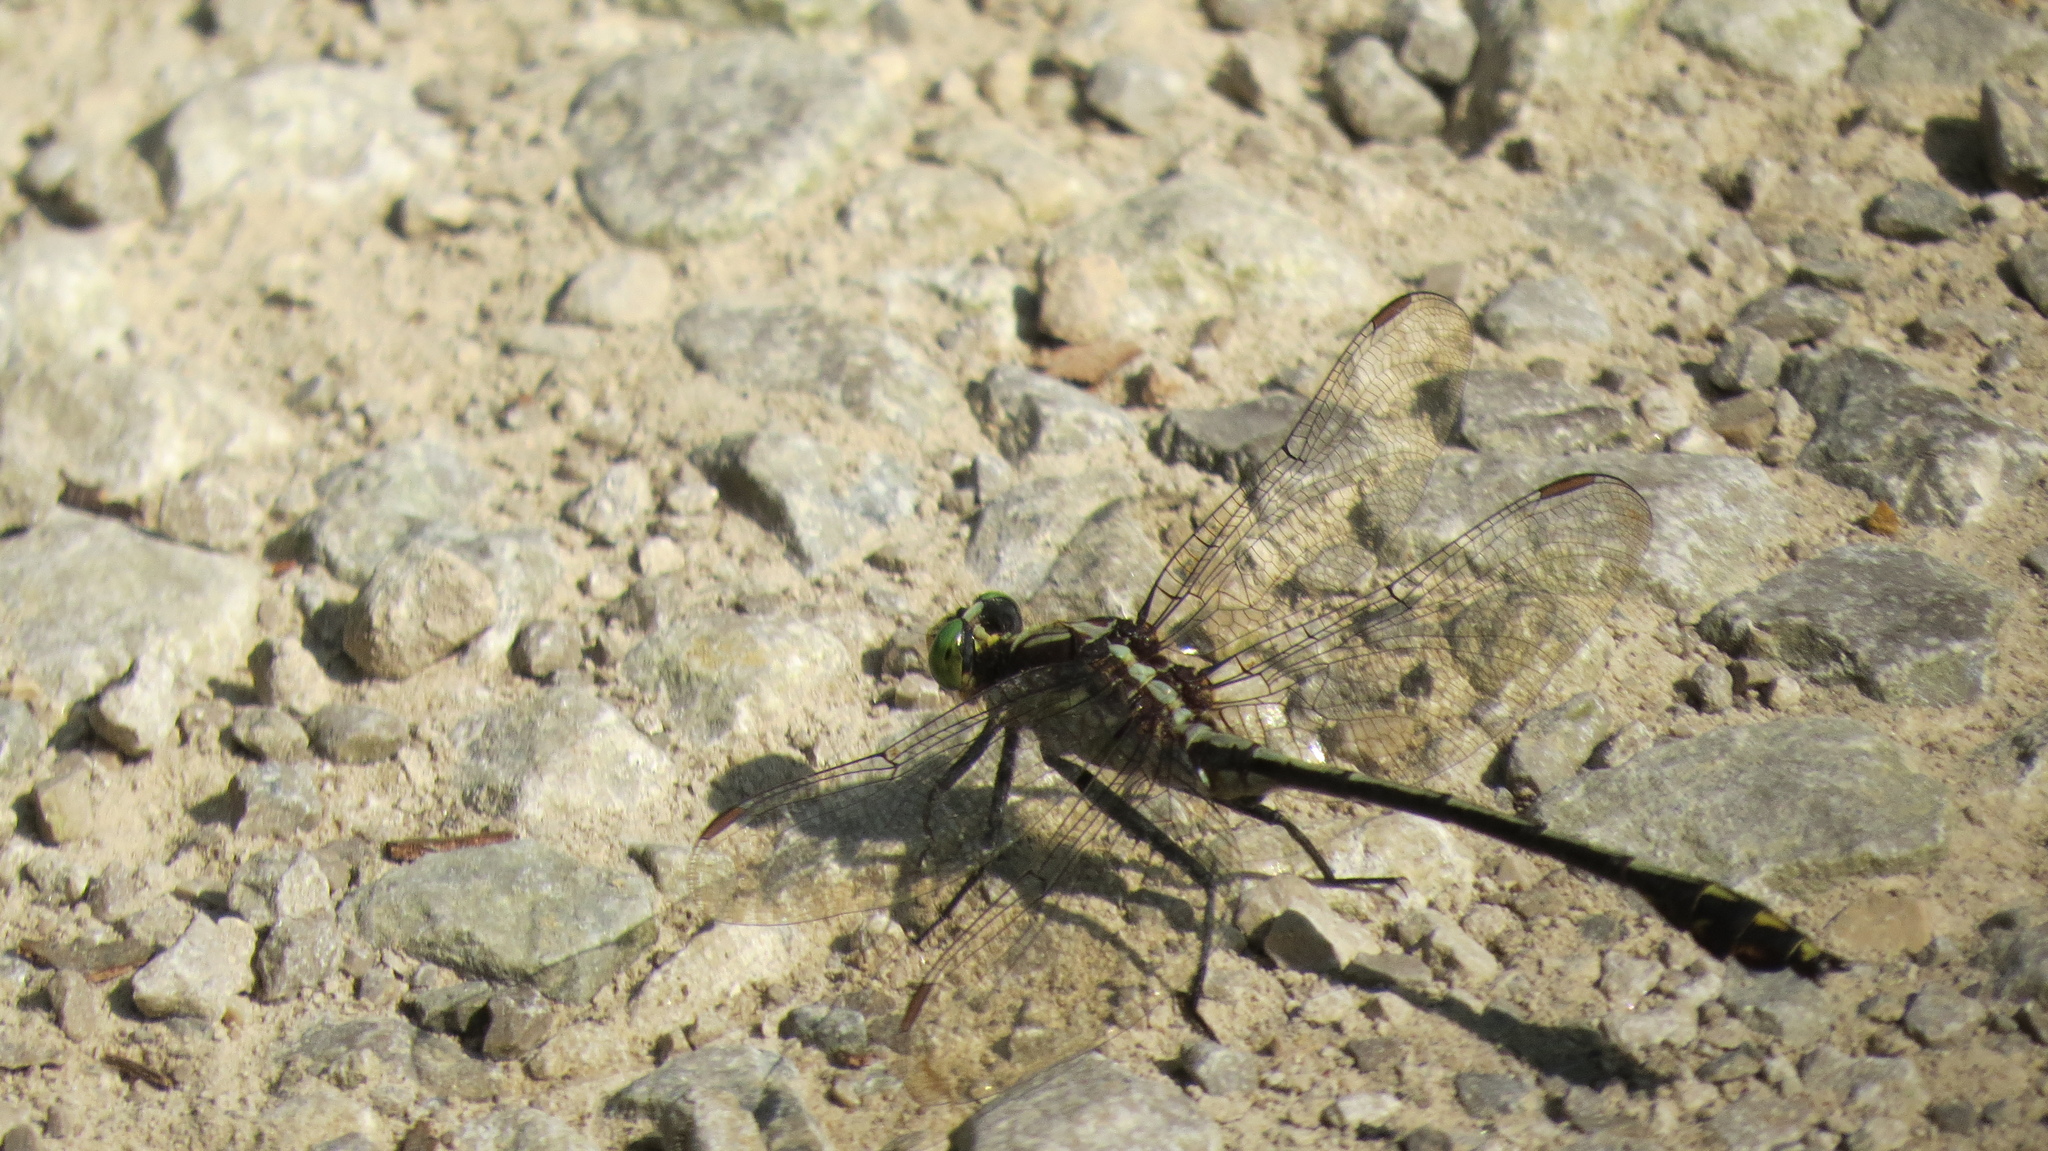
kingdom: Animalia
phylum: Arthropoda
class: Insecta
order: Odonata
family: Gomphidae
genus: Dromogomphus
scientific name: Dromogomphus spinosus
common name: Black-shouldered spinyleg
